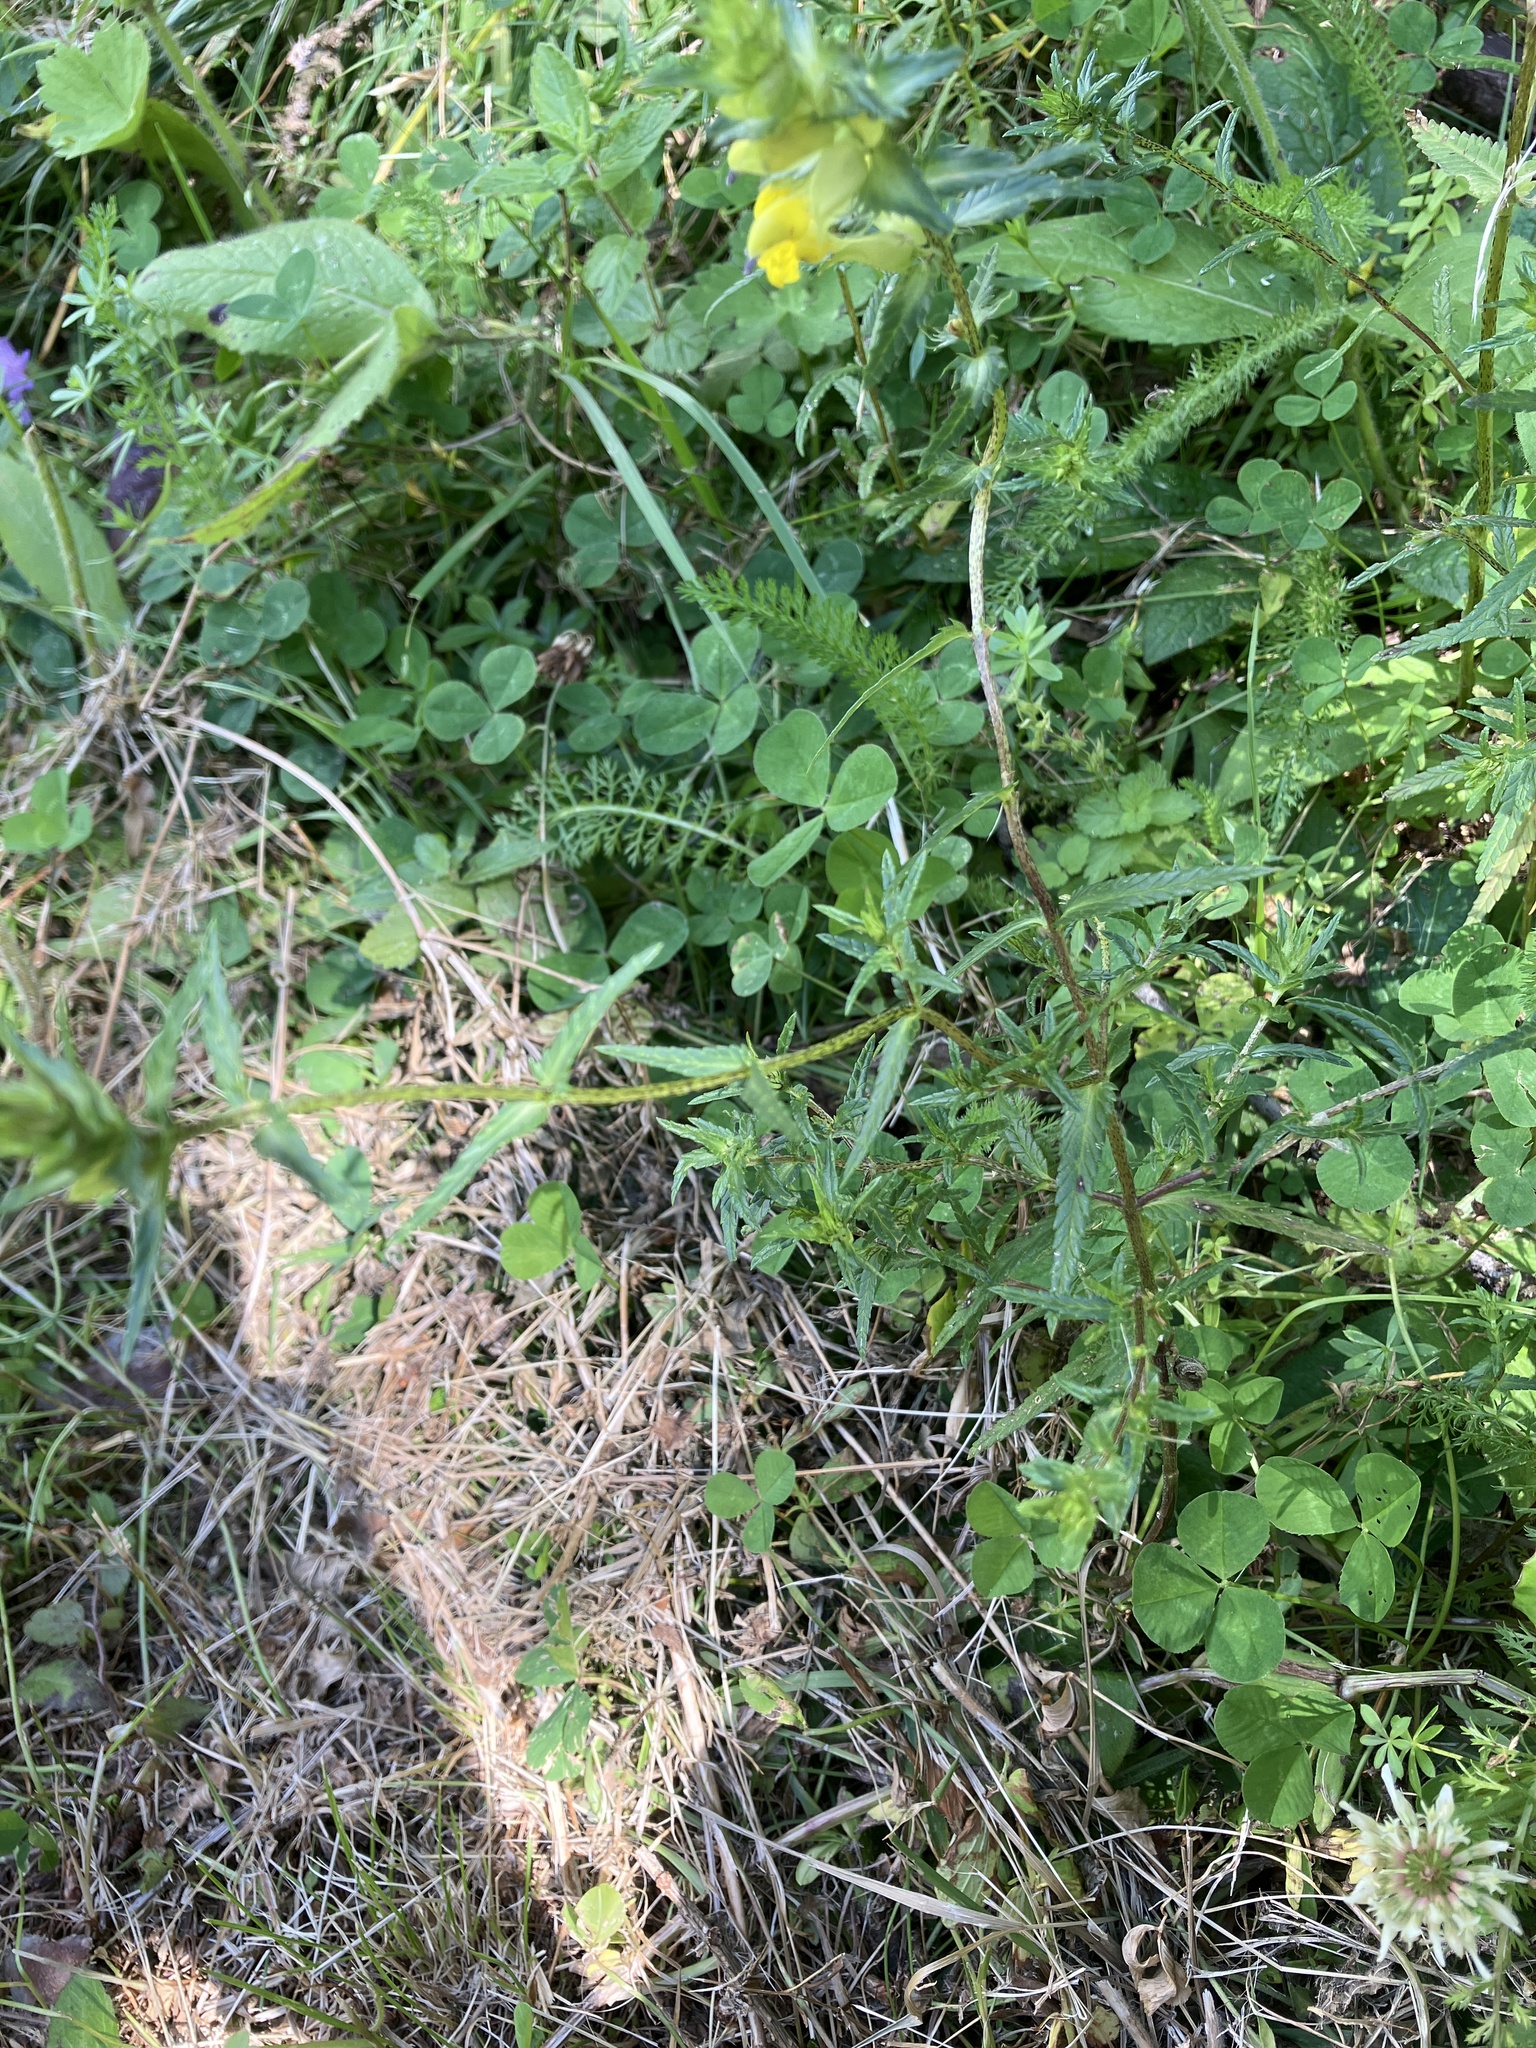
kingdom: Plantae
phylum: Tracheophyta
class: Magnoliopsida
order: Lamiales
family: Orobanchaceae
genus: Rhinanthus
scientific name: Rhinanthus glacialis
